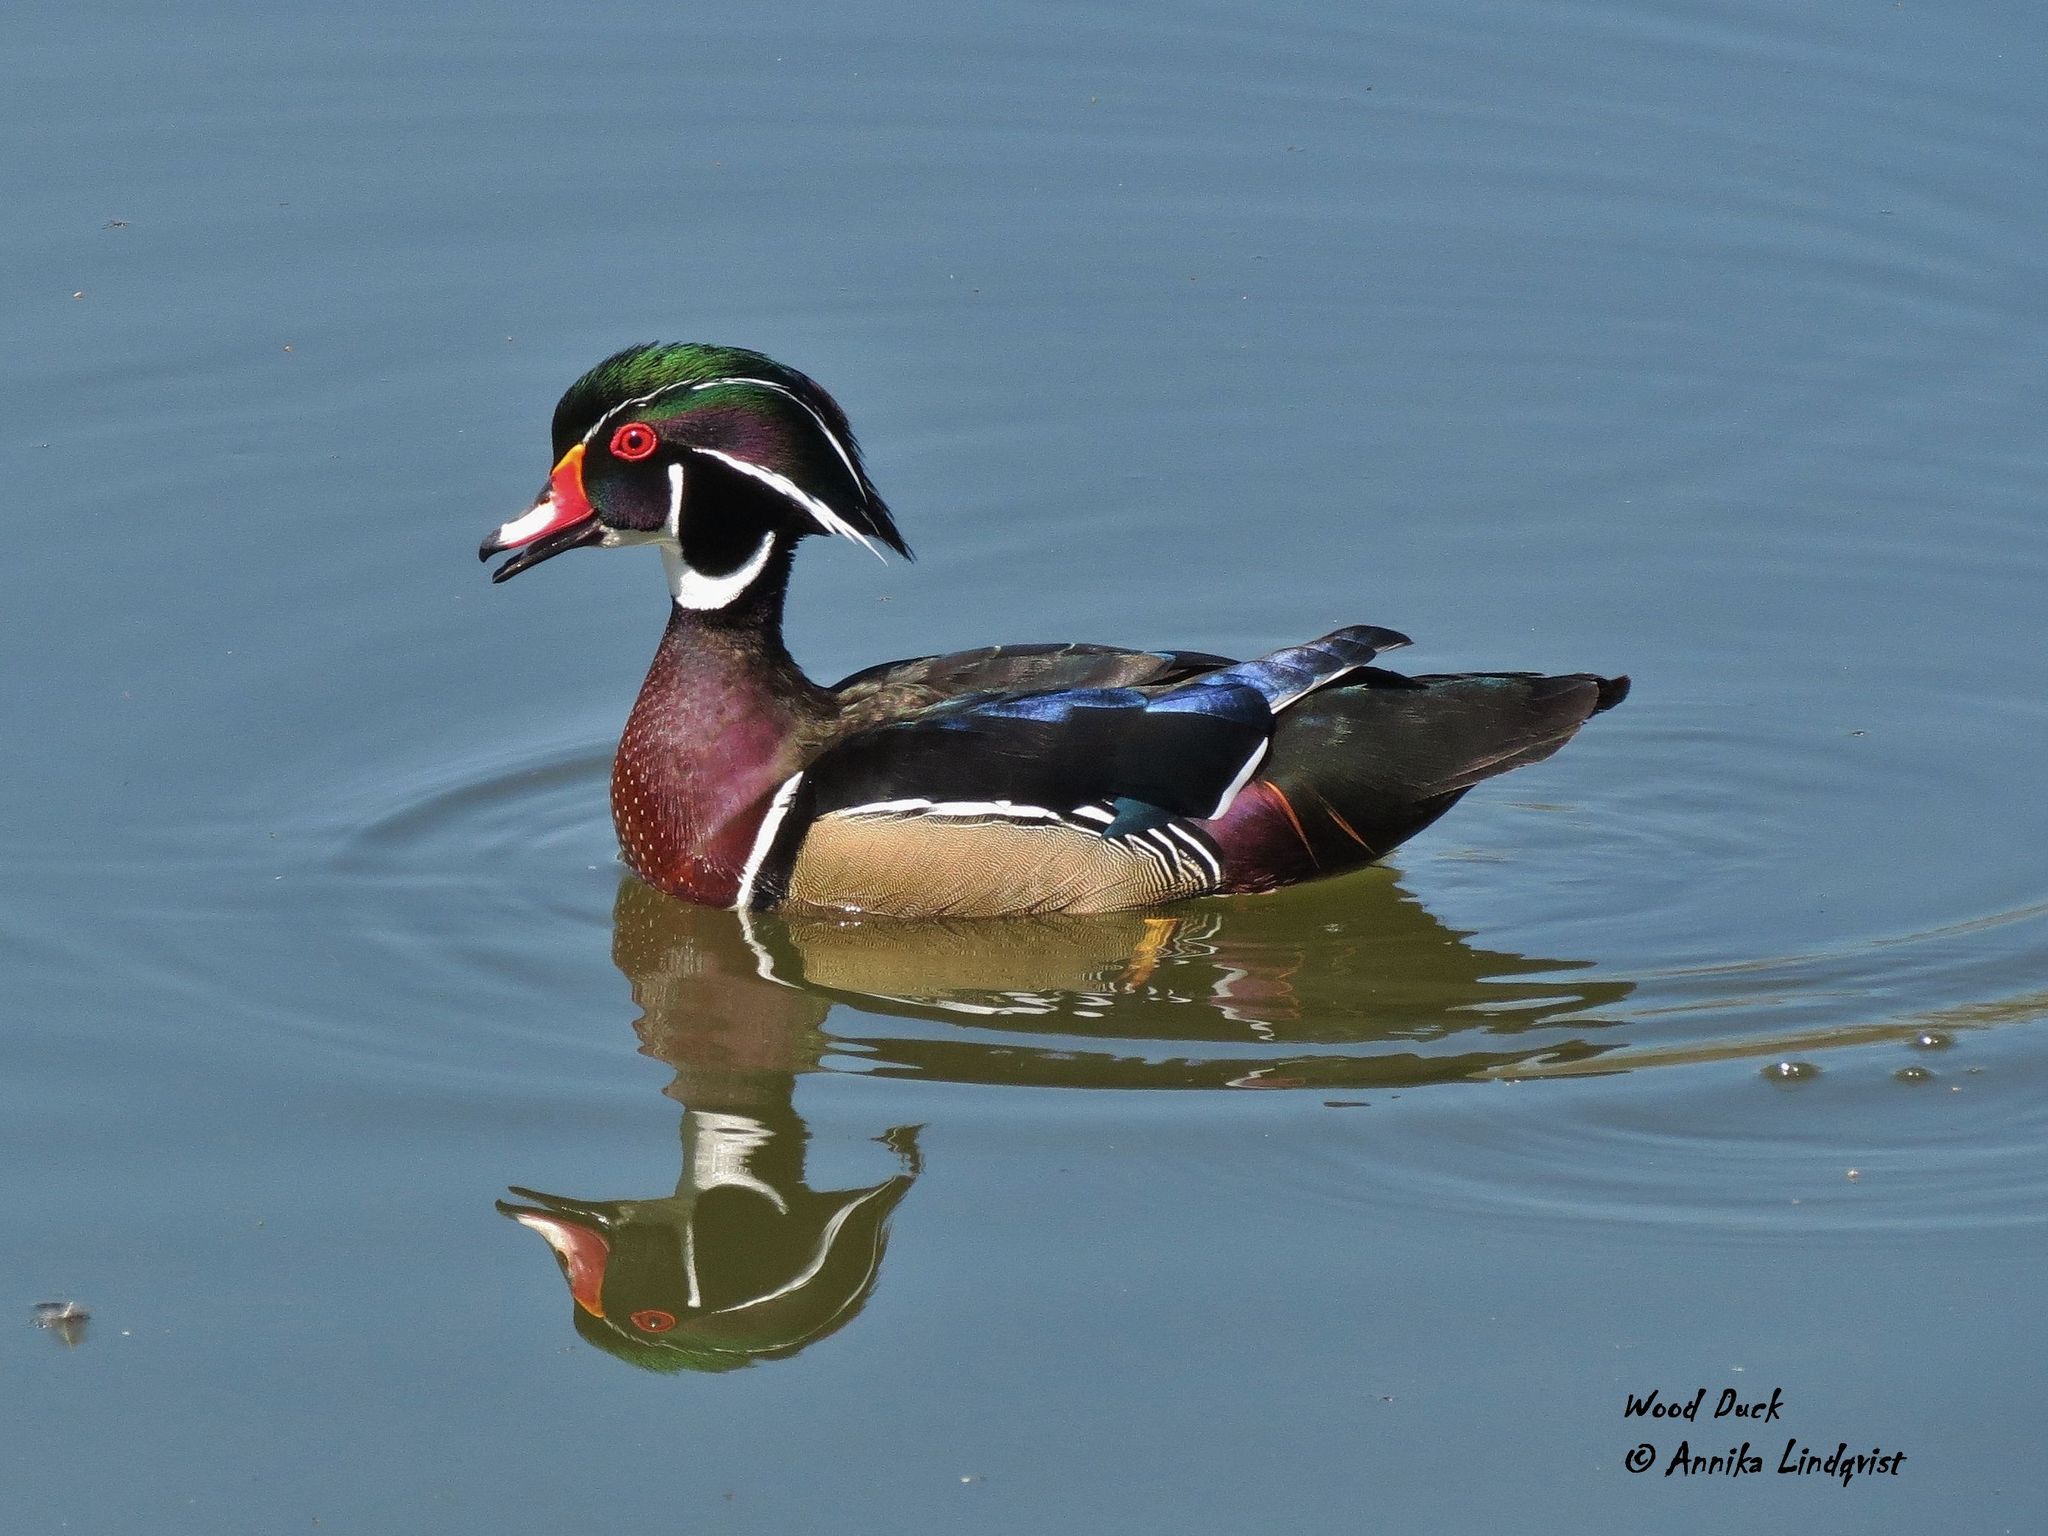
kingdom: Animalia
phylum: Chordata
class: Aves
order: Anseriformes
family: Anatidae
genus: Aix
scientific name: Aix sponsa
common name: Wood duck
